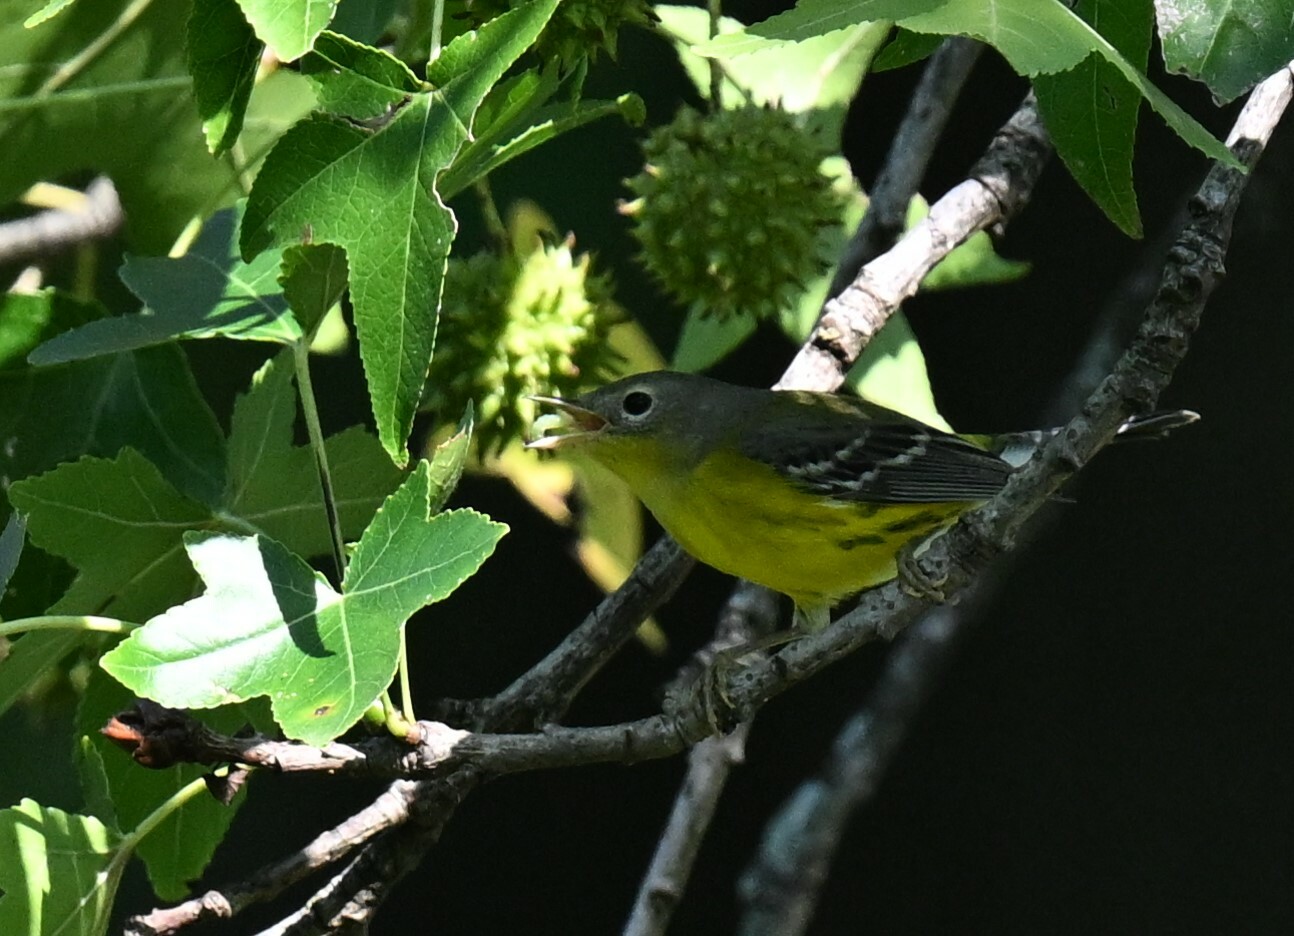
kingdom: Animalia
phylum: Chordata
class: Aves
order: Passeriformes
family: Parulidae
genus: Setophaga
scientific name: Setophaga magnolia
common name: Magnolia warbler
